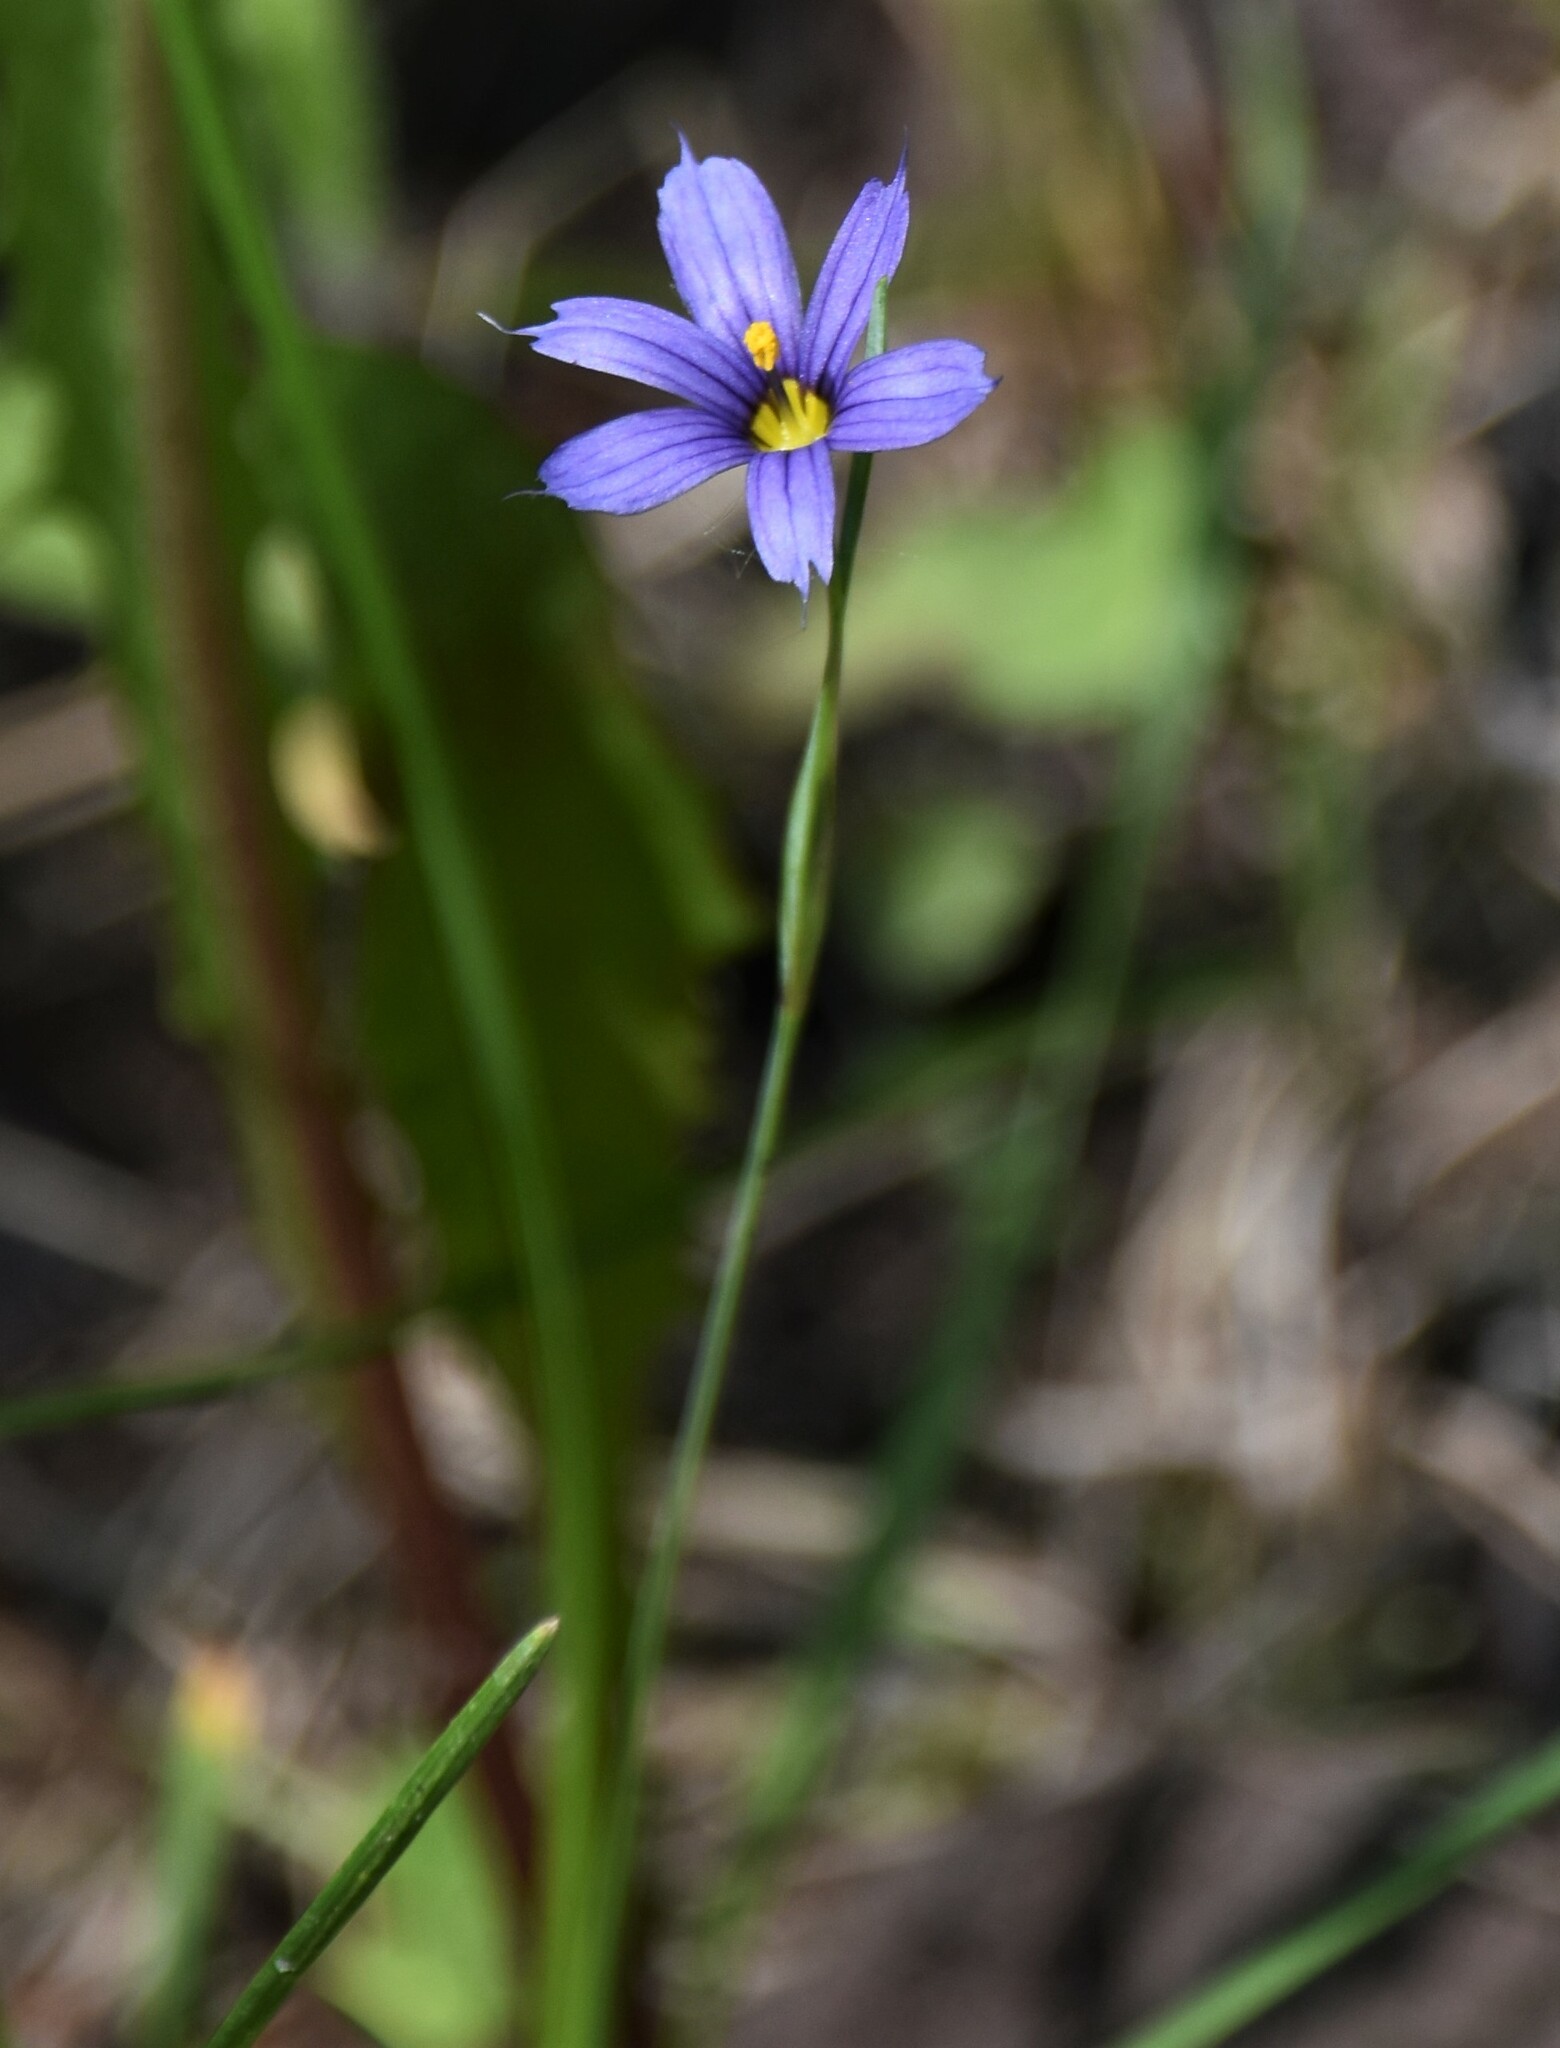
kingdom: Plantae
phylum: Tracheophyta
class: Liliopsida
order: Asparagales
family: Iridaceae
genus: Sisyrinchium
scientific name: Sisyrinchium montanum
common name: American blue-eyed-grass
